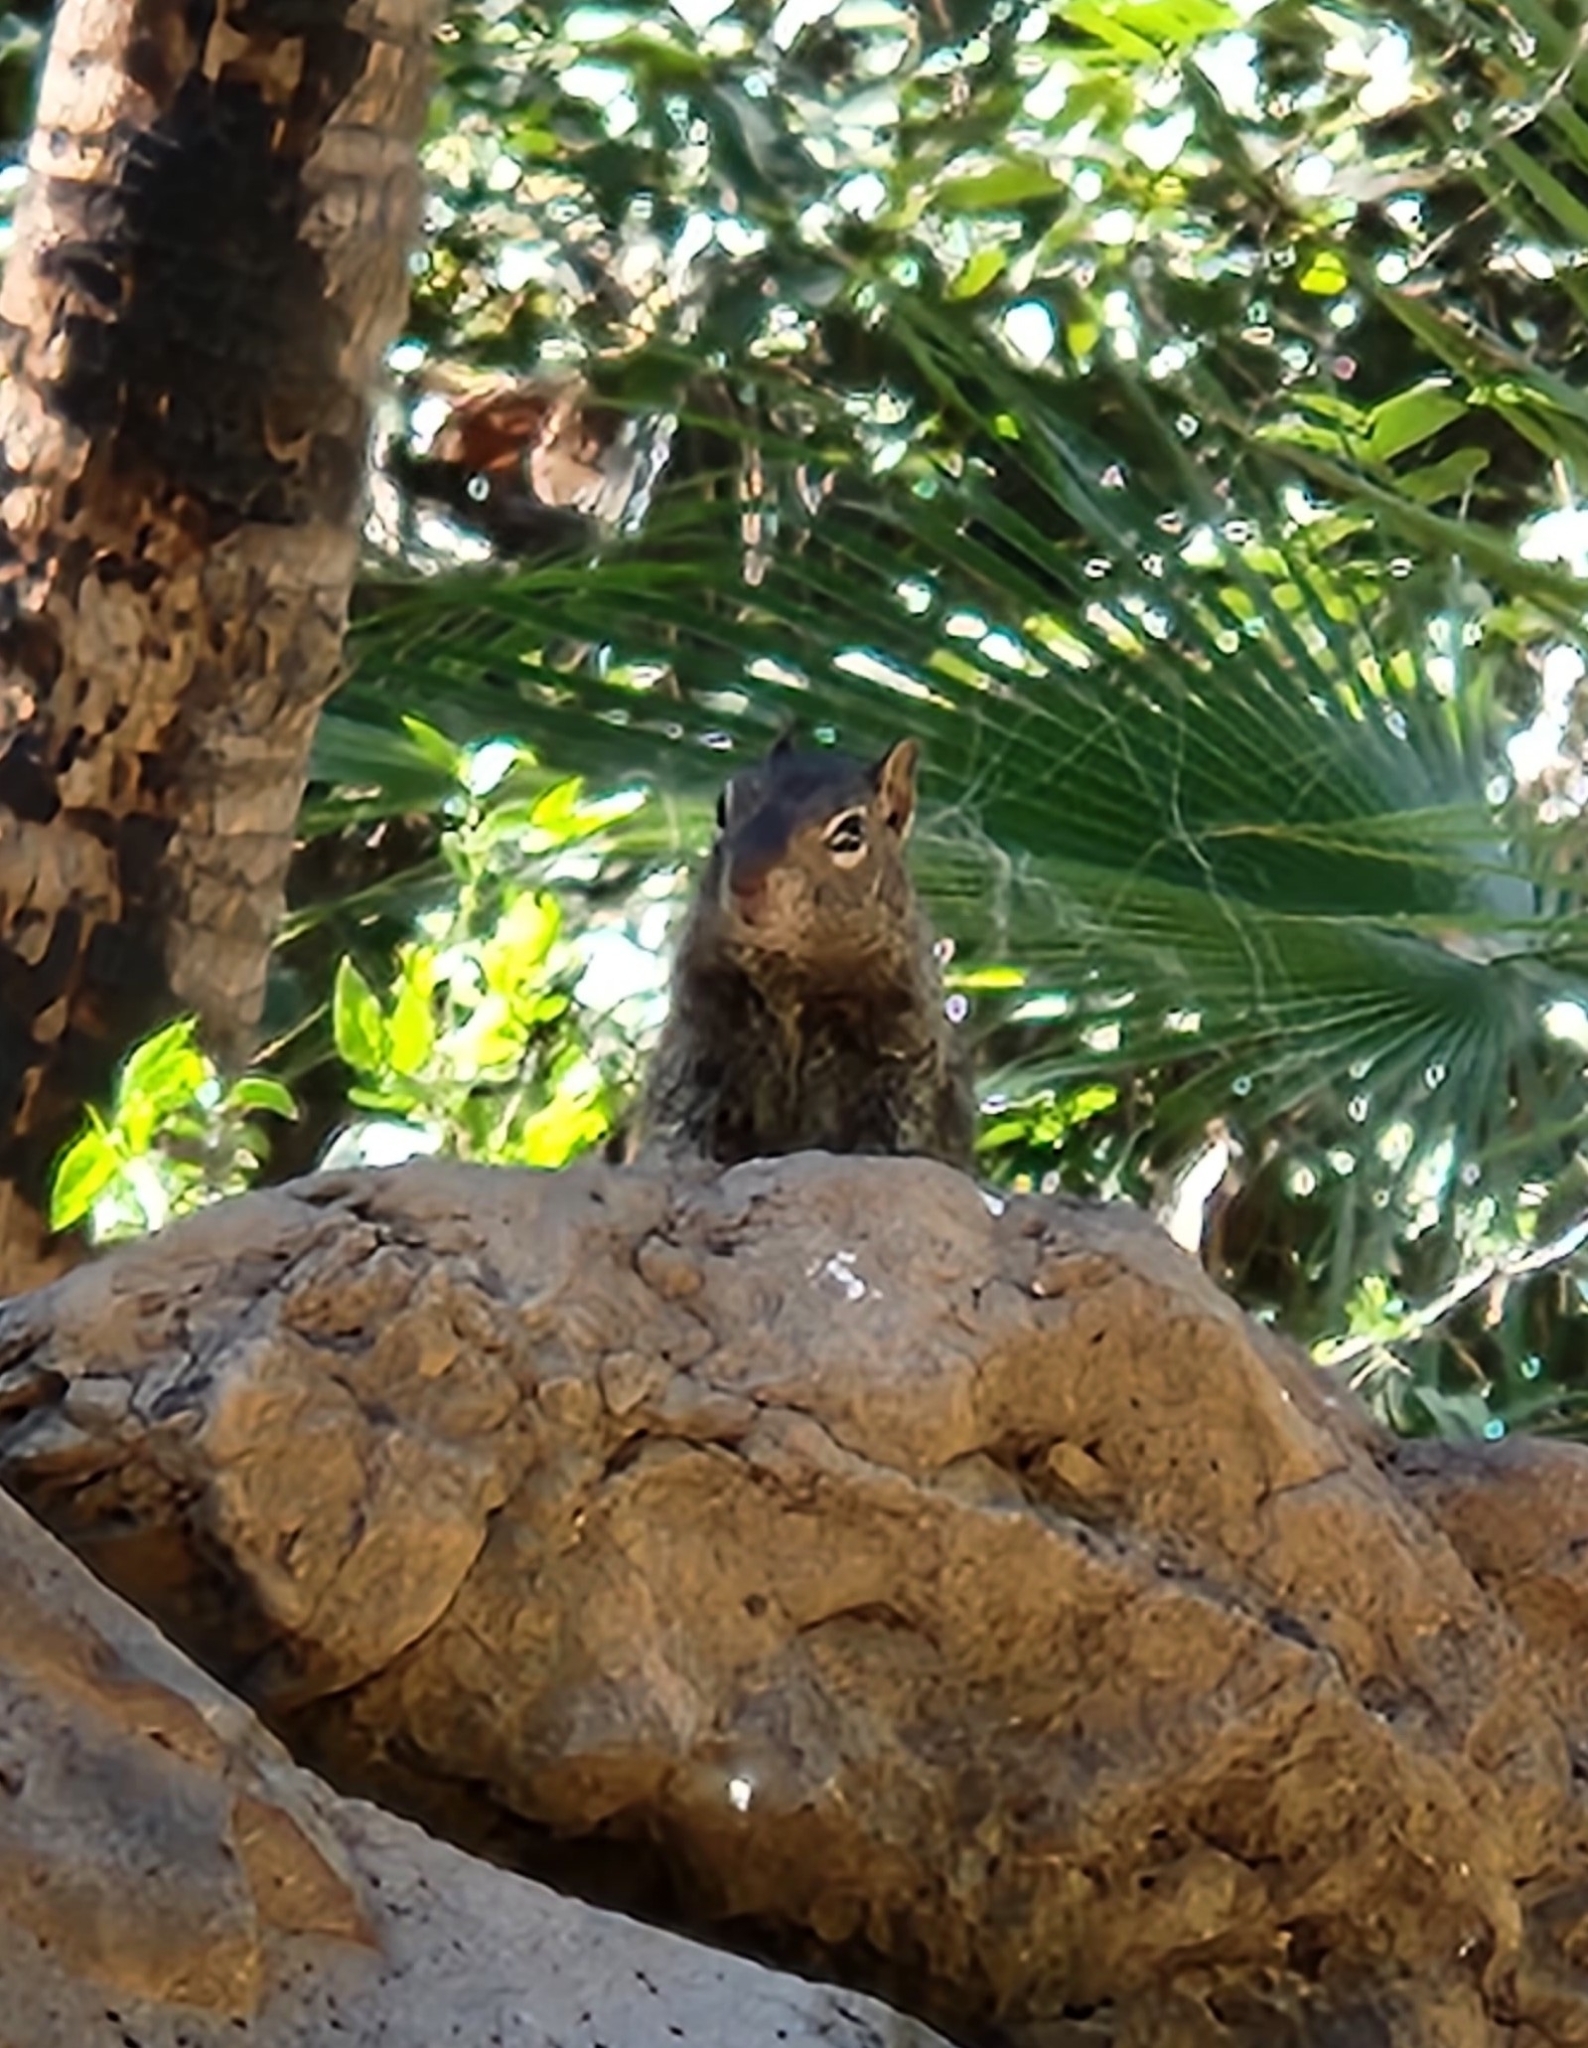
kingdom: Animalia
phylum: Chordata
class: Mammalia
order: Rodentia
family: Sciuridae
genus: Otospermophilus
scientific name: Otospermophilus atricapillus
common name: Baja california rock squirrel
